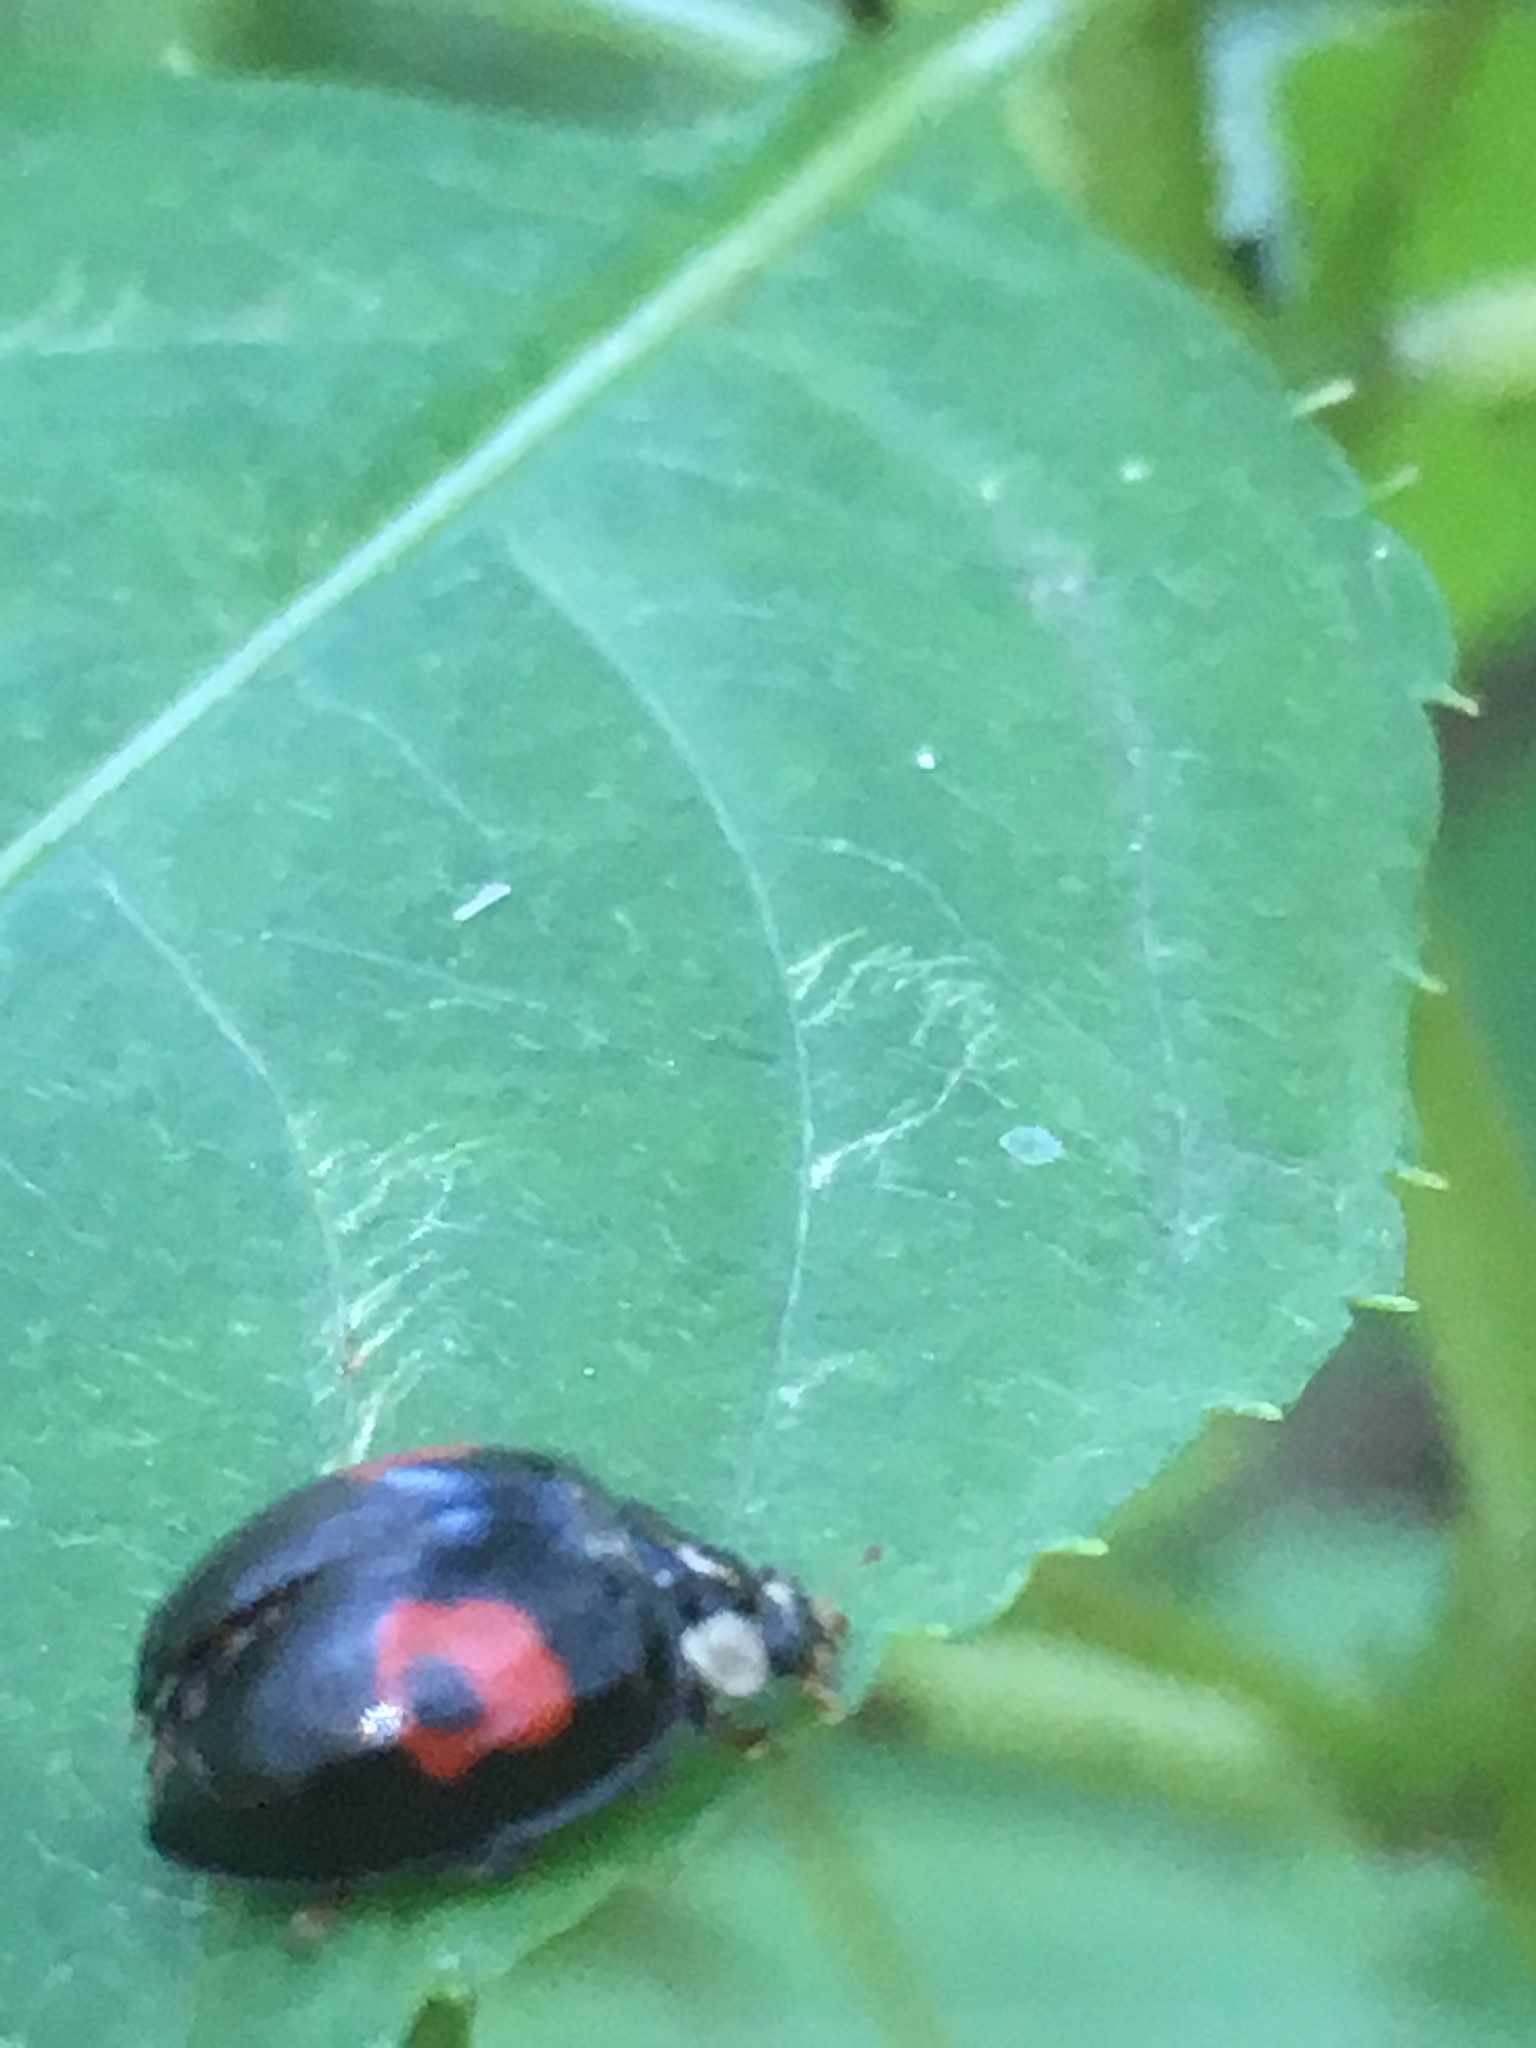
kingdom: Animalia
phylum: Arthropoda
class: Insecta
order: Coleoptera
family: Coccinellidae
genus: Harmonia
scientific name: Harmonia axyridis
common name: Harlequin ladybird
